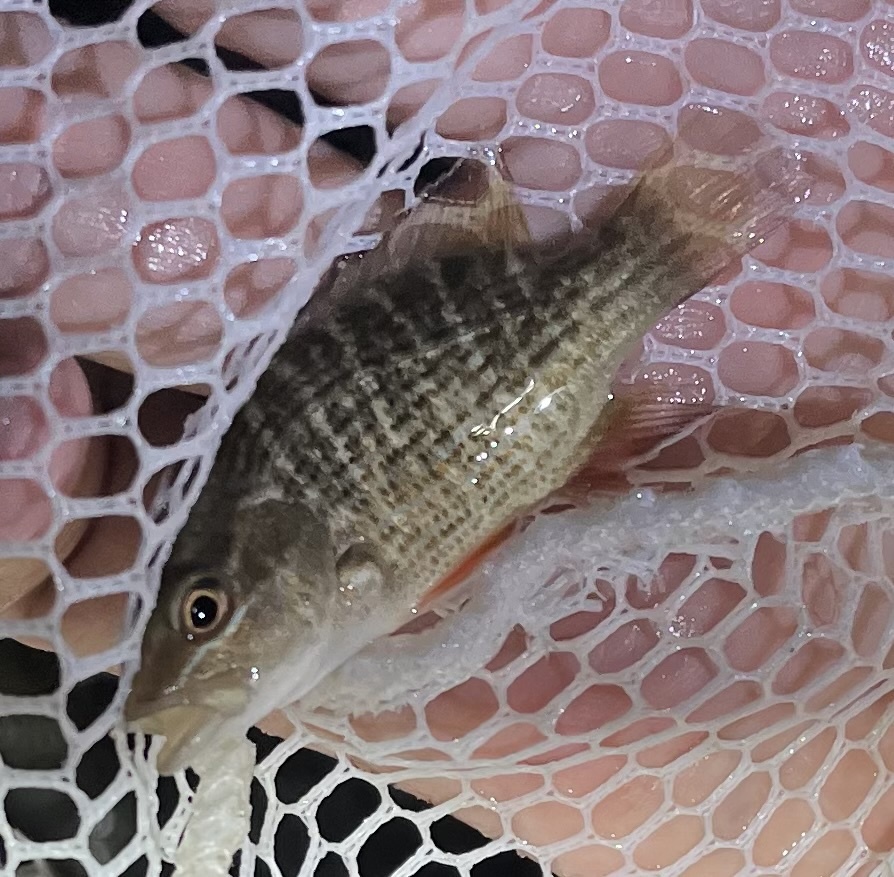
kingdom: Animalia
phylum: Chordata
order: Perciformes
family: Lutjanidae
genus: Lutjanus
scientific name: Lutjanus griseus
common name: Gray snapper
